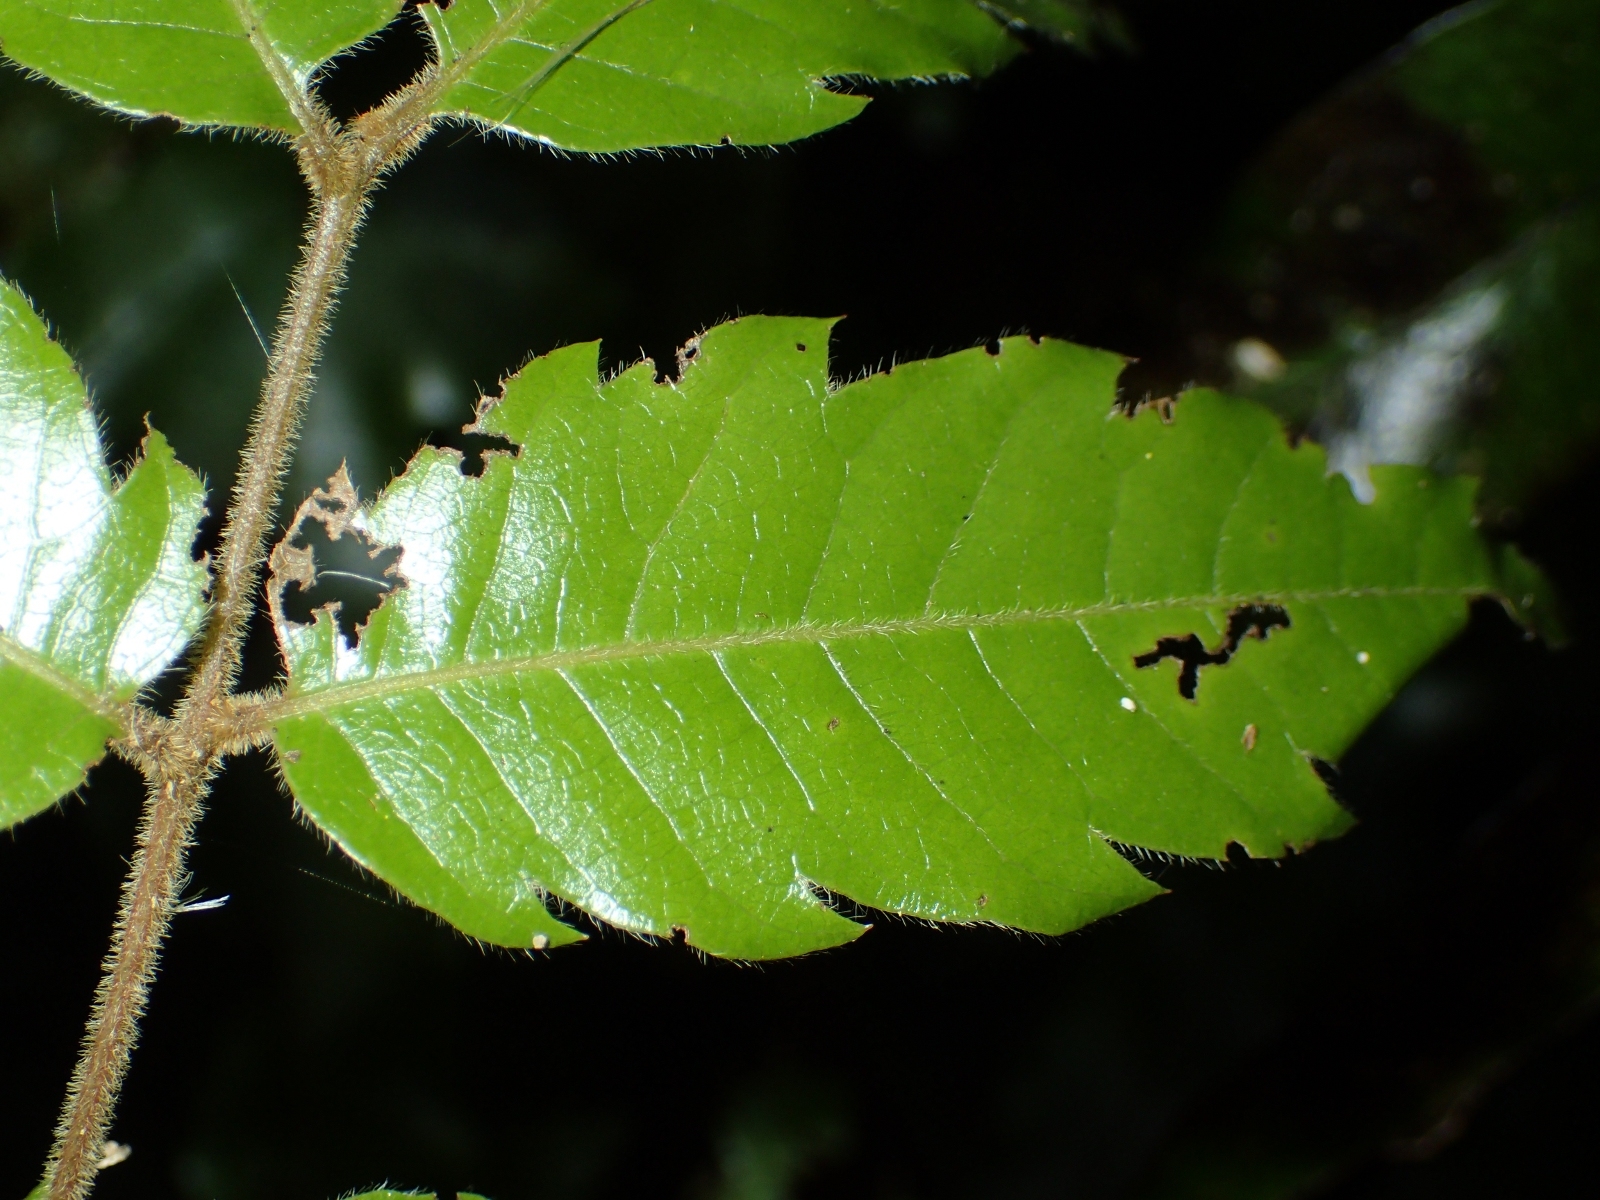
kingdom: Plantae
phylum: Tracheophyta
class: Magnoliopsida
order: Sapindales
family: Sapindaceae
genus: Alectryon
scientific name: Alectryon excelsus
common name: Three kings titoki
